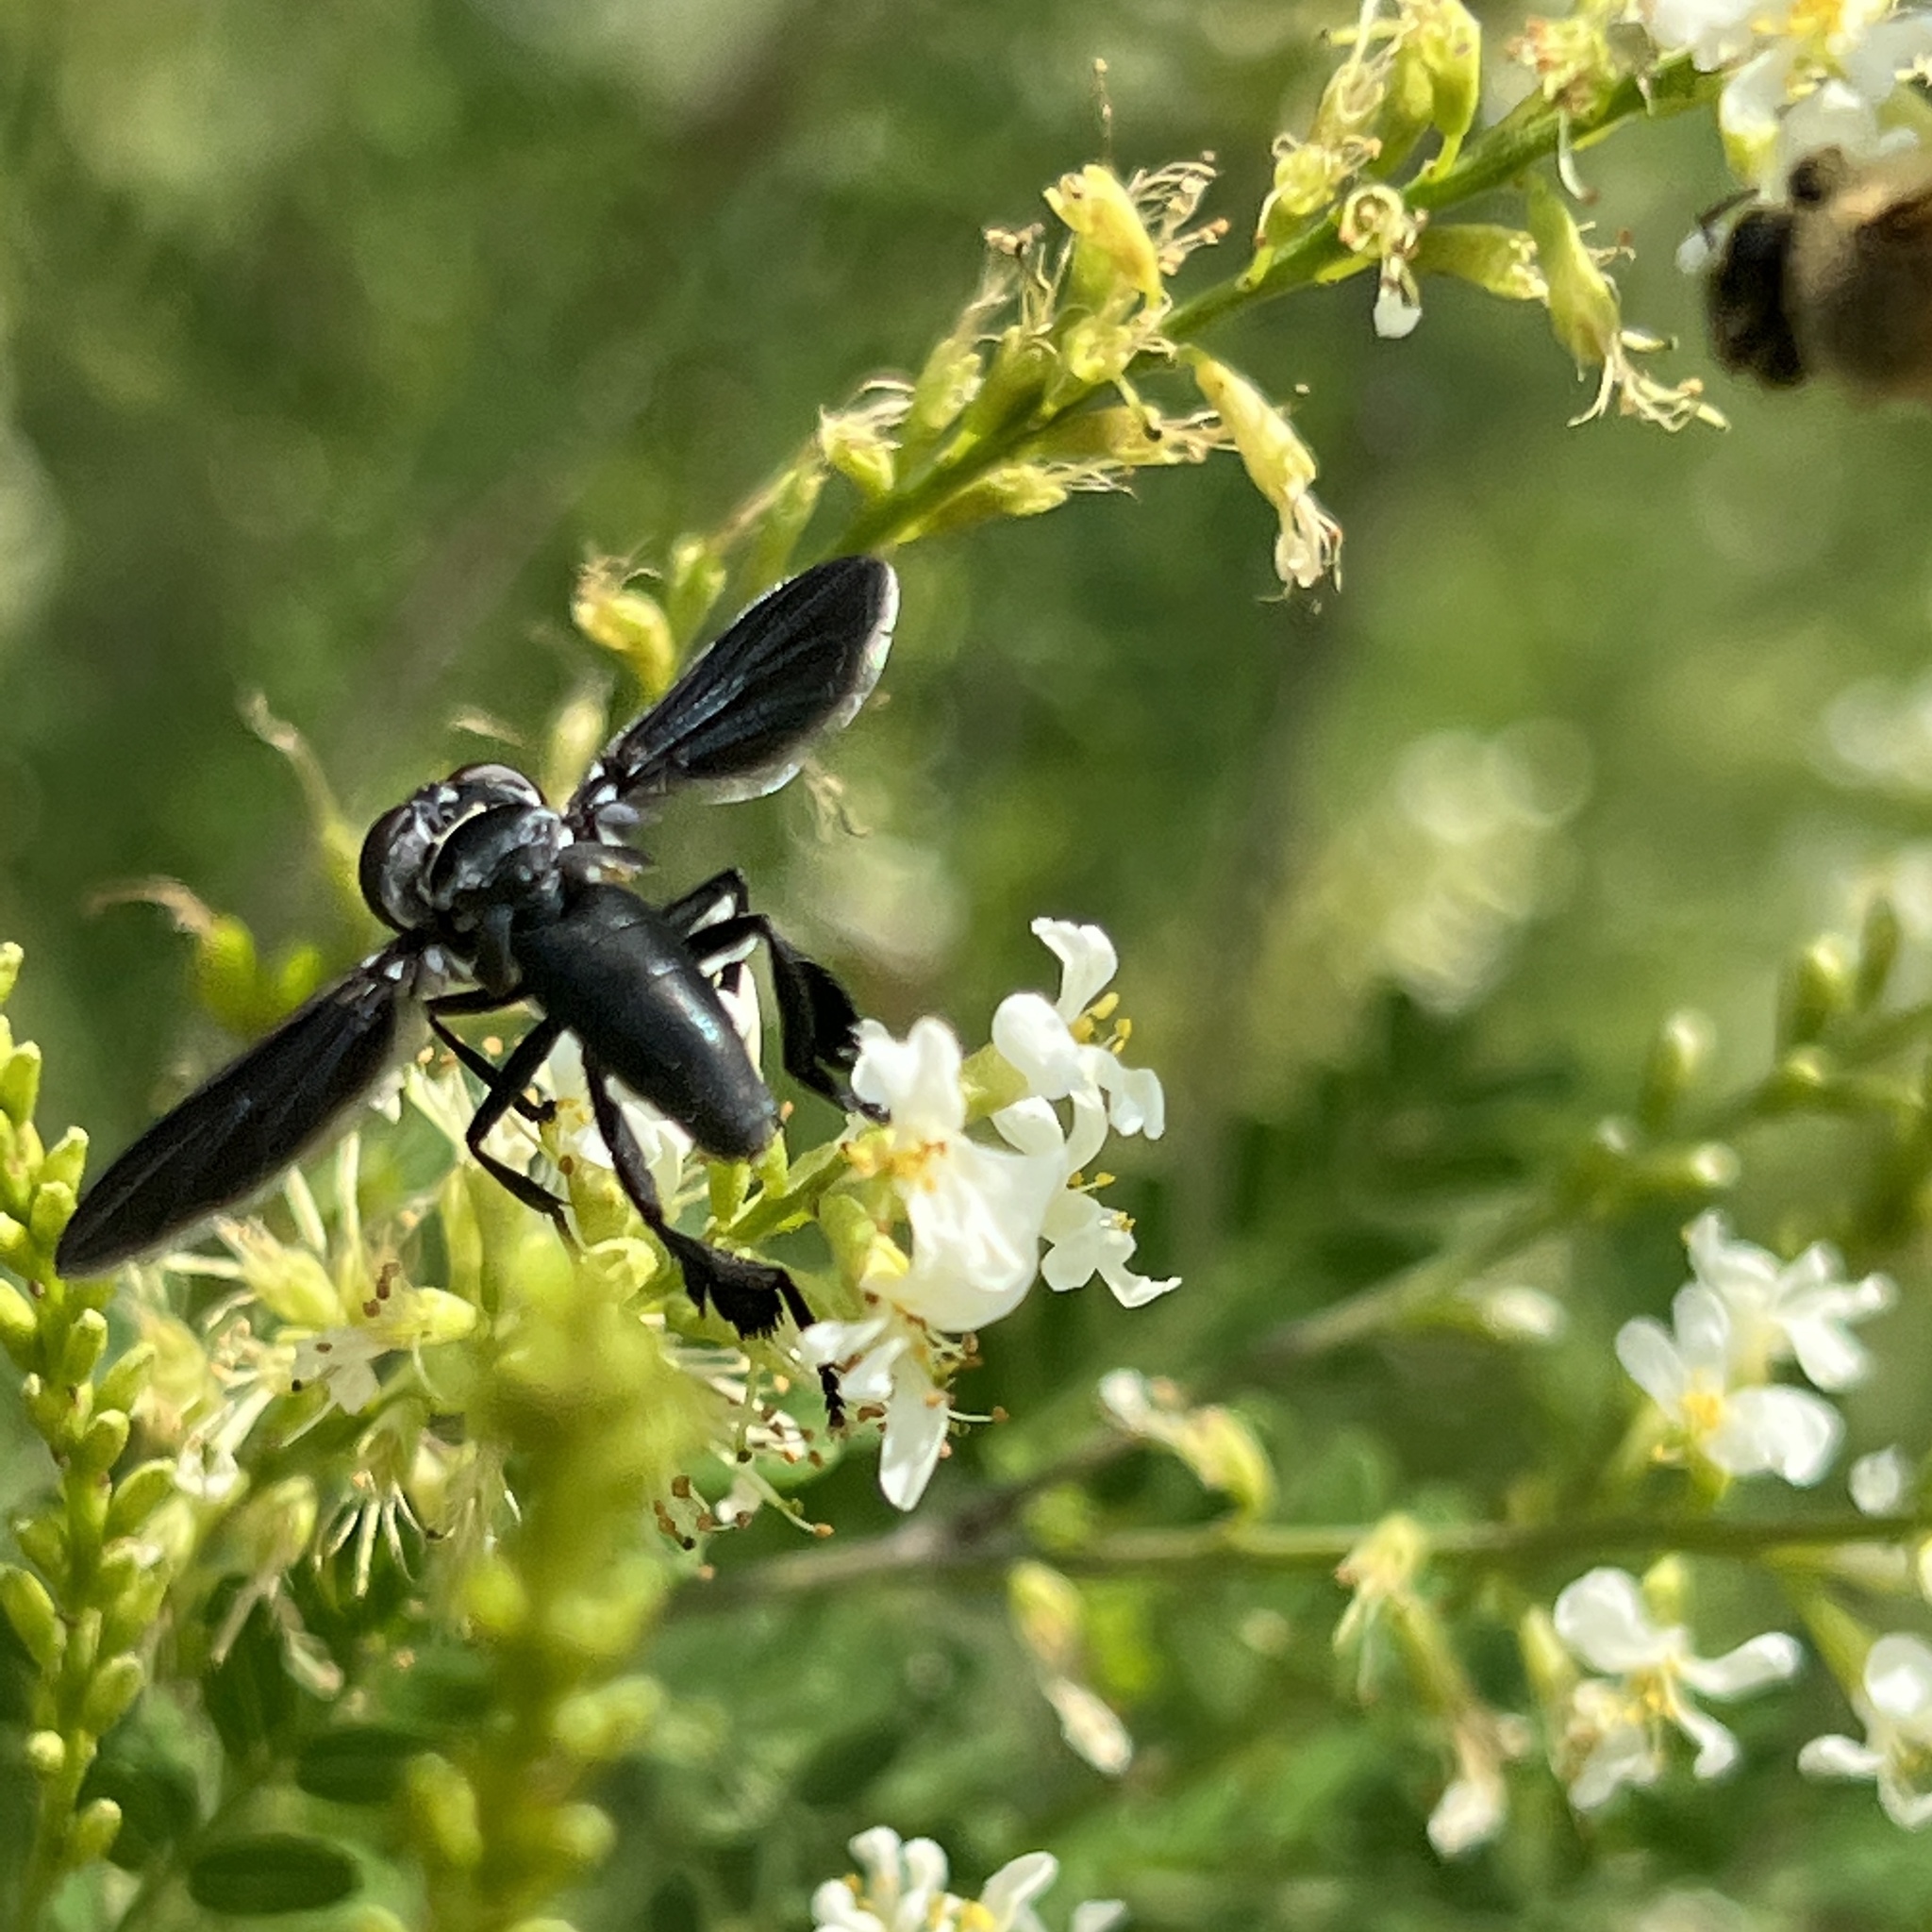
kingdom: Animalia
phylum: Arthropoda
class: Insecta
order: Diptera
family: Tachinidae
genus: Trichopoda
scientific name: Trichopoda lanipes
